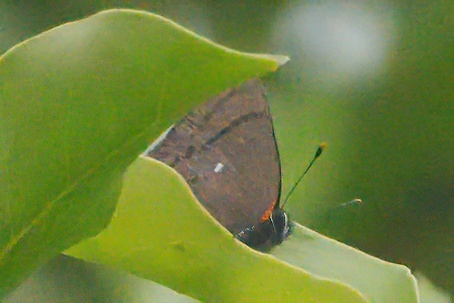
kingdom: Animalia
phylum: Arthropoda
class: Insecta
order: Lepidoptera
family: Lycaenidae
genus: Thecla
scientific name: Thecla angelia
